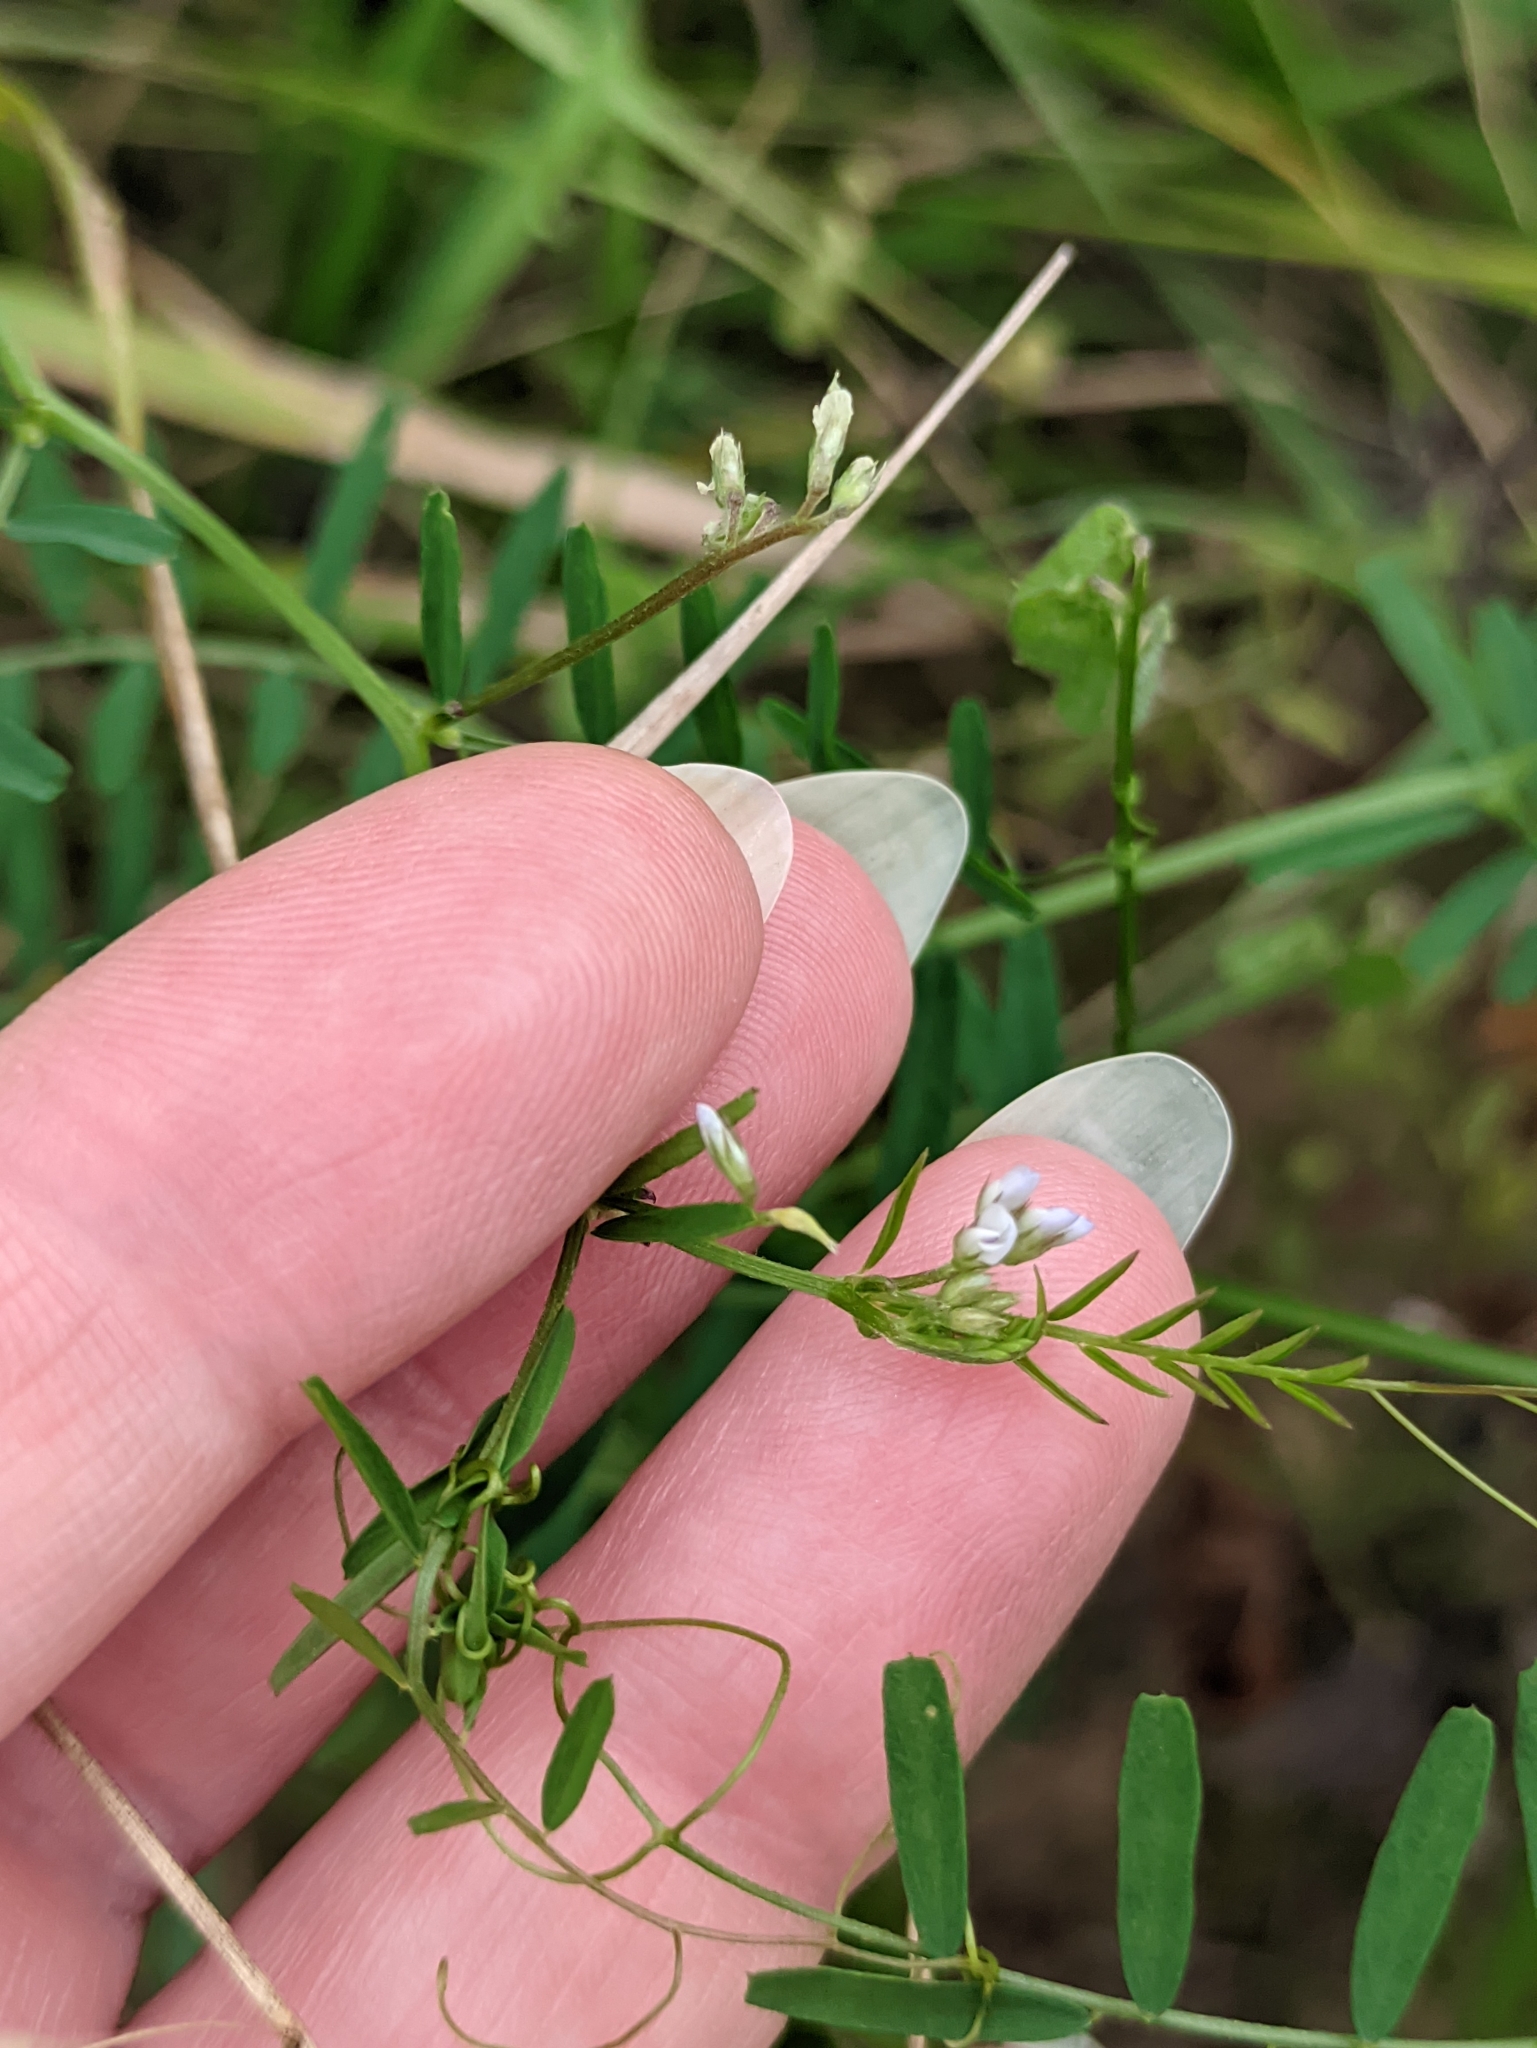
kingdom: Plantae
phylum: Tracheophyta
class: Magnoliopsida
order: Fabales
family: Fabaceae
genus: Vicia
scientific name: Vicia hirsuta
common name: Tiny vetch
